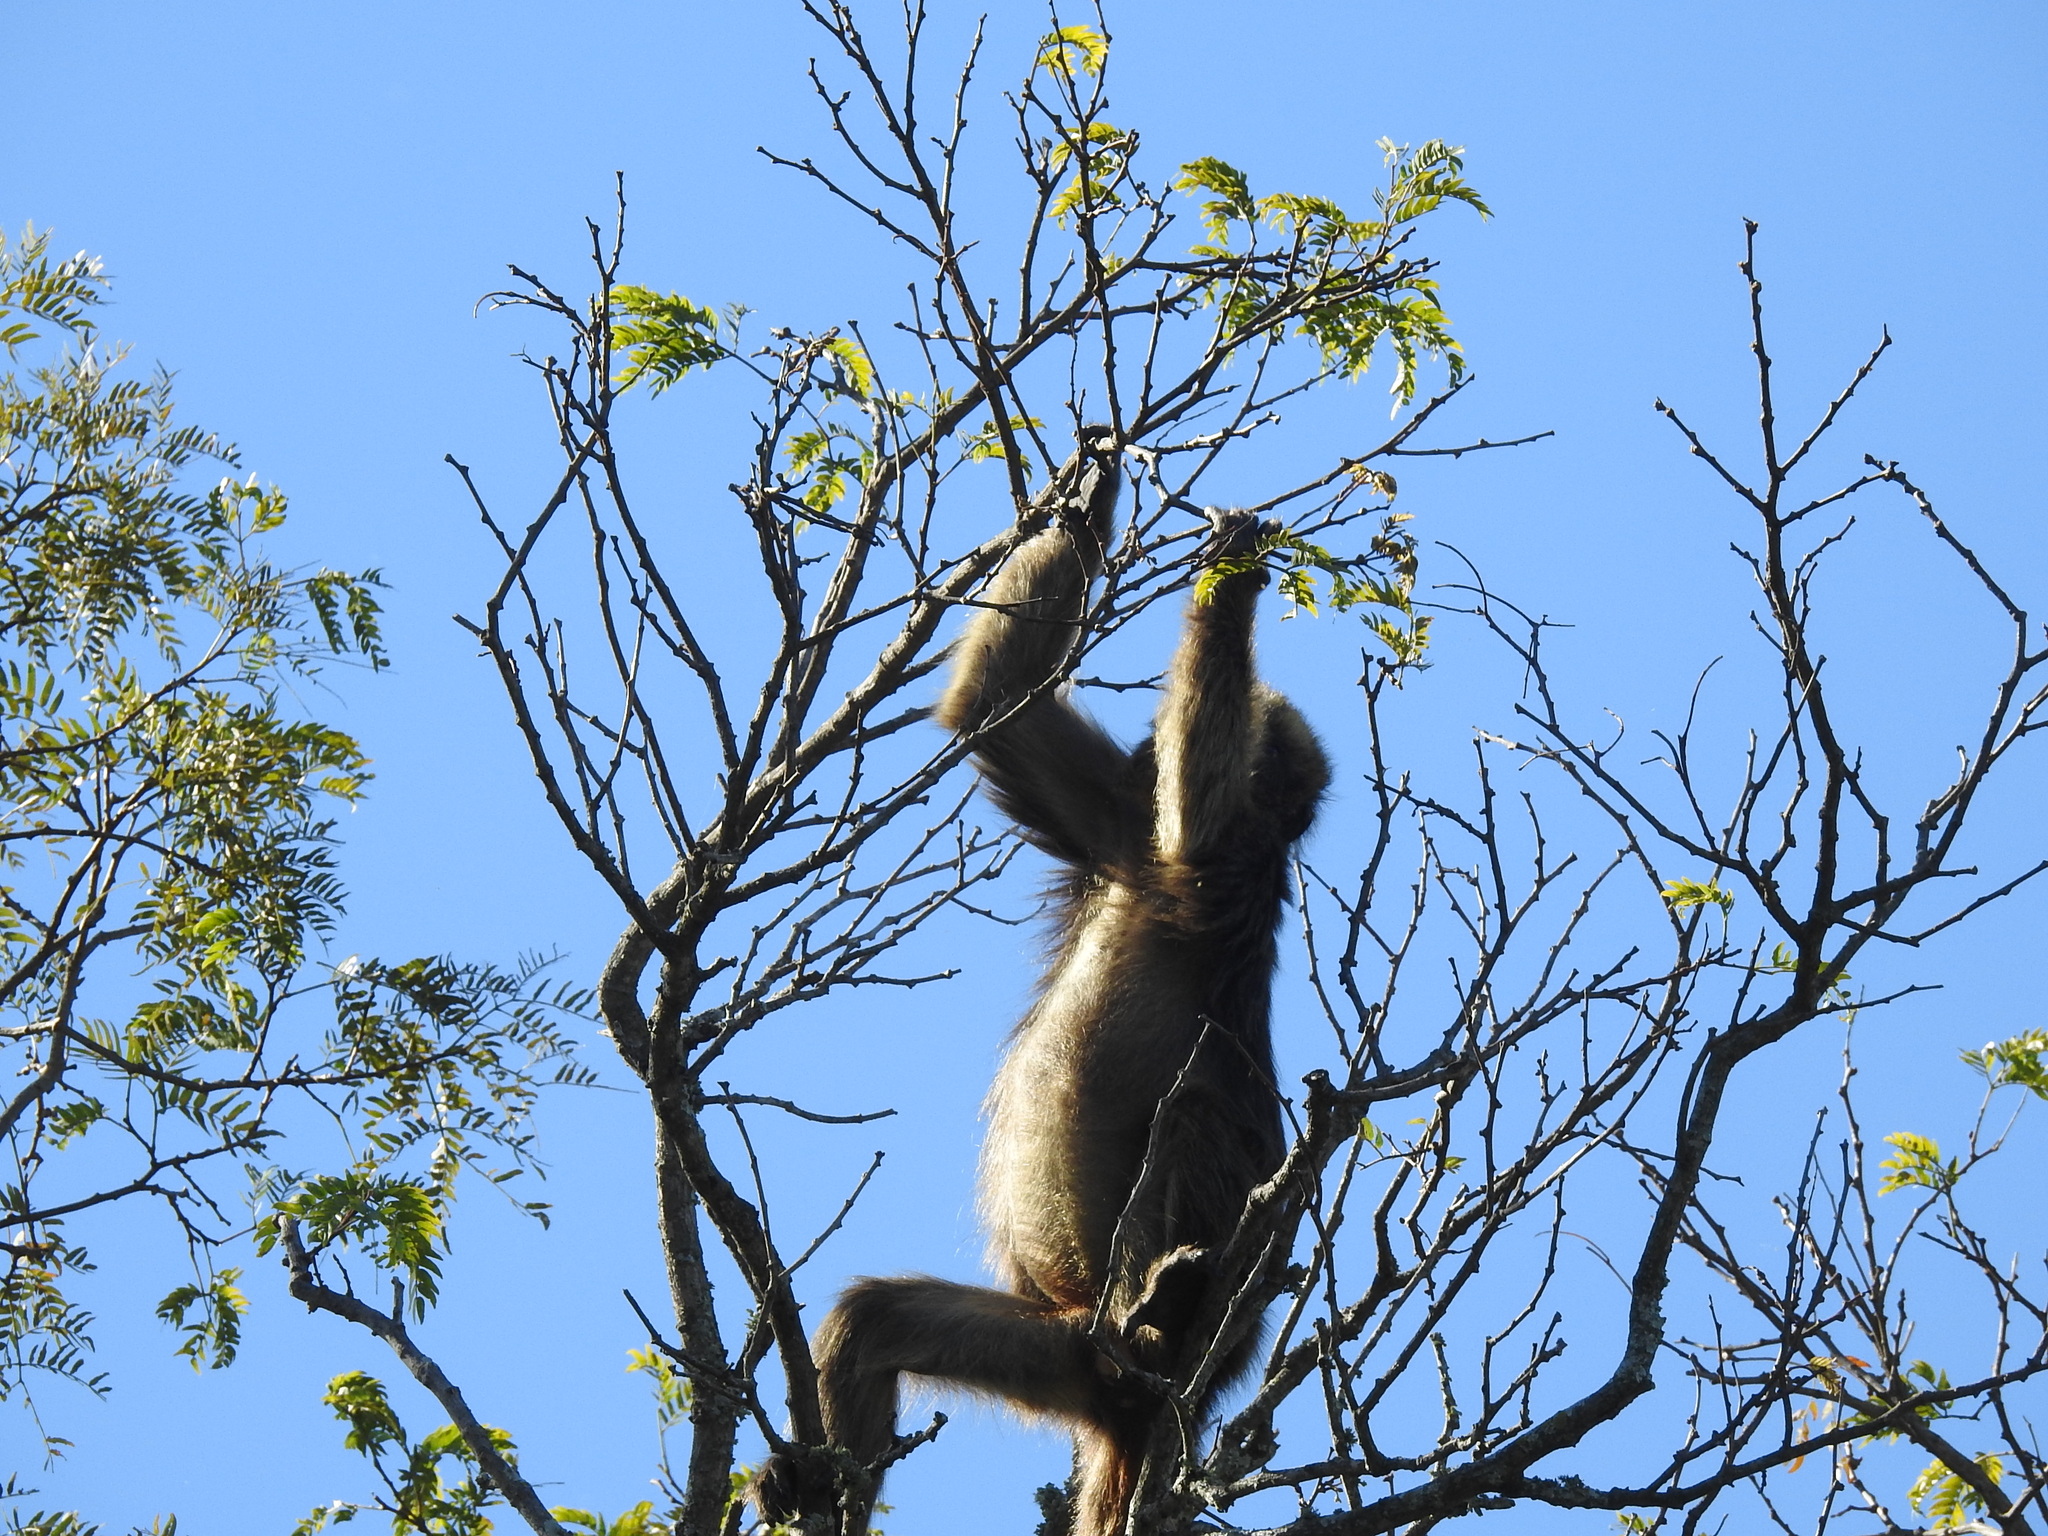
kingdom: Animalia
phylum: Chordata
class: Mammalia
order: Primates
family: Atelidae
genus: Alouatta
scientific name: Alouatta caraya
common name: Black howler
